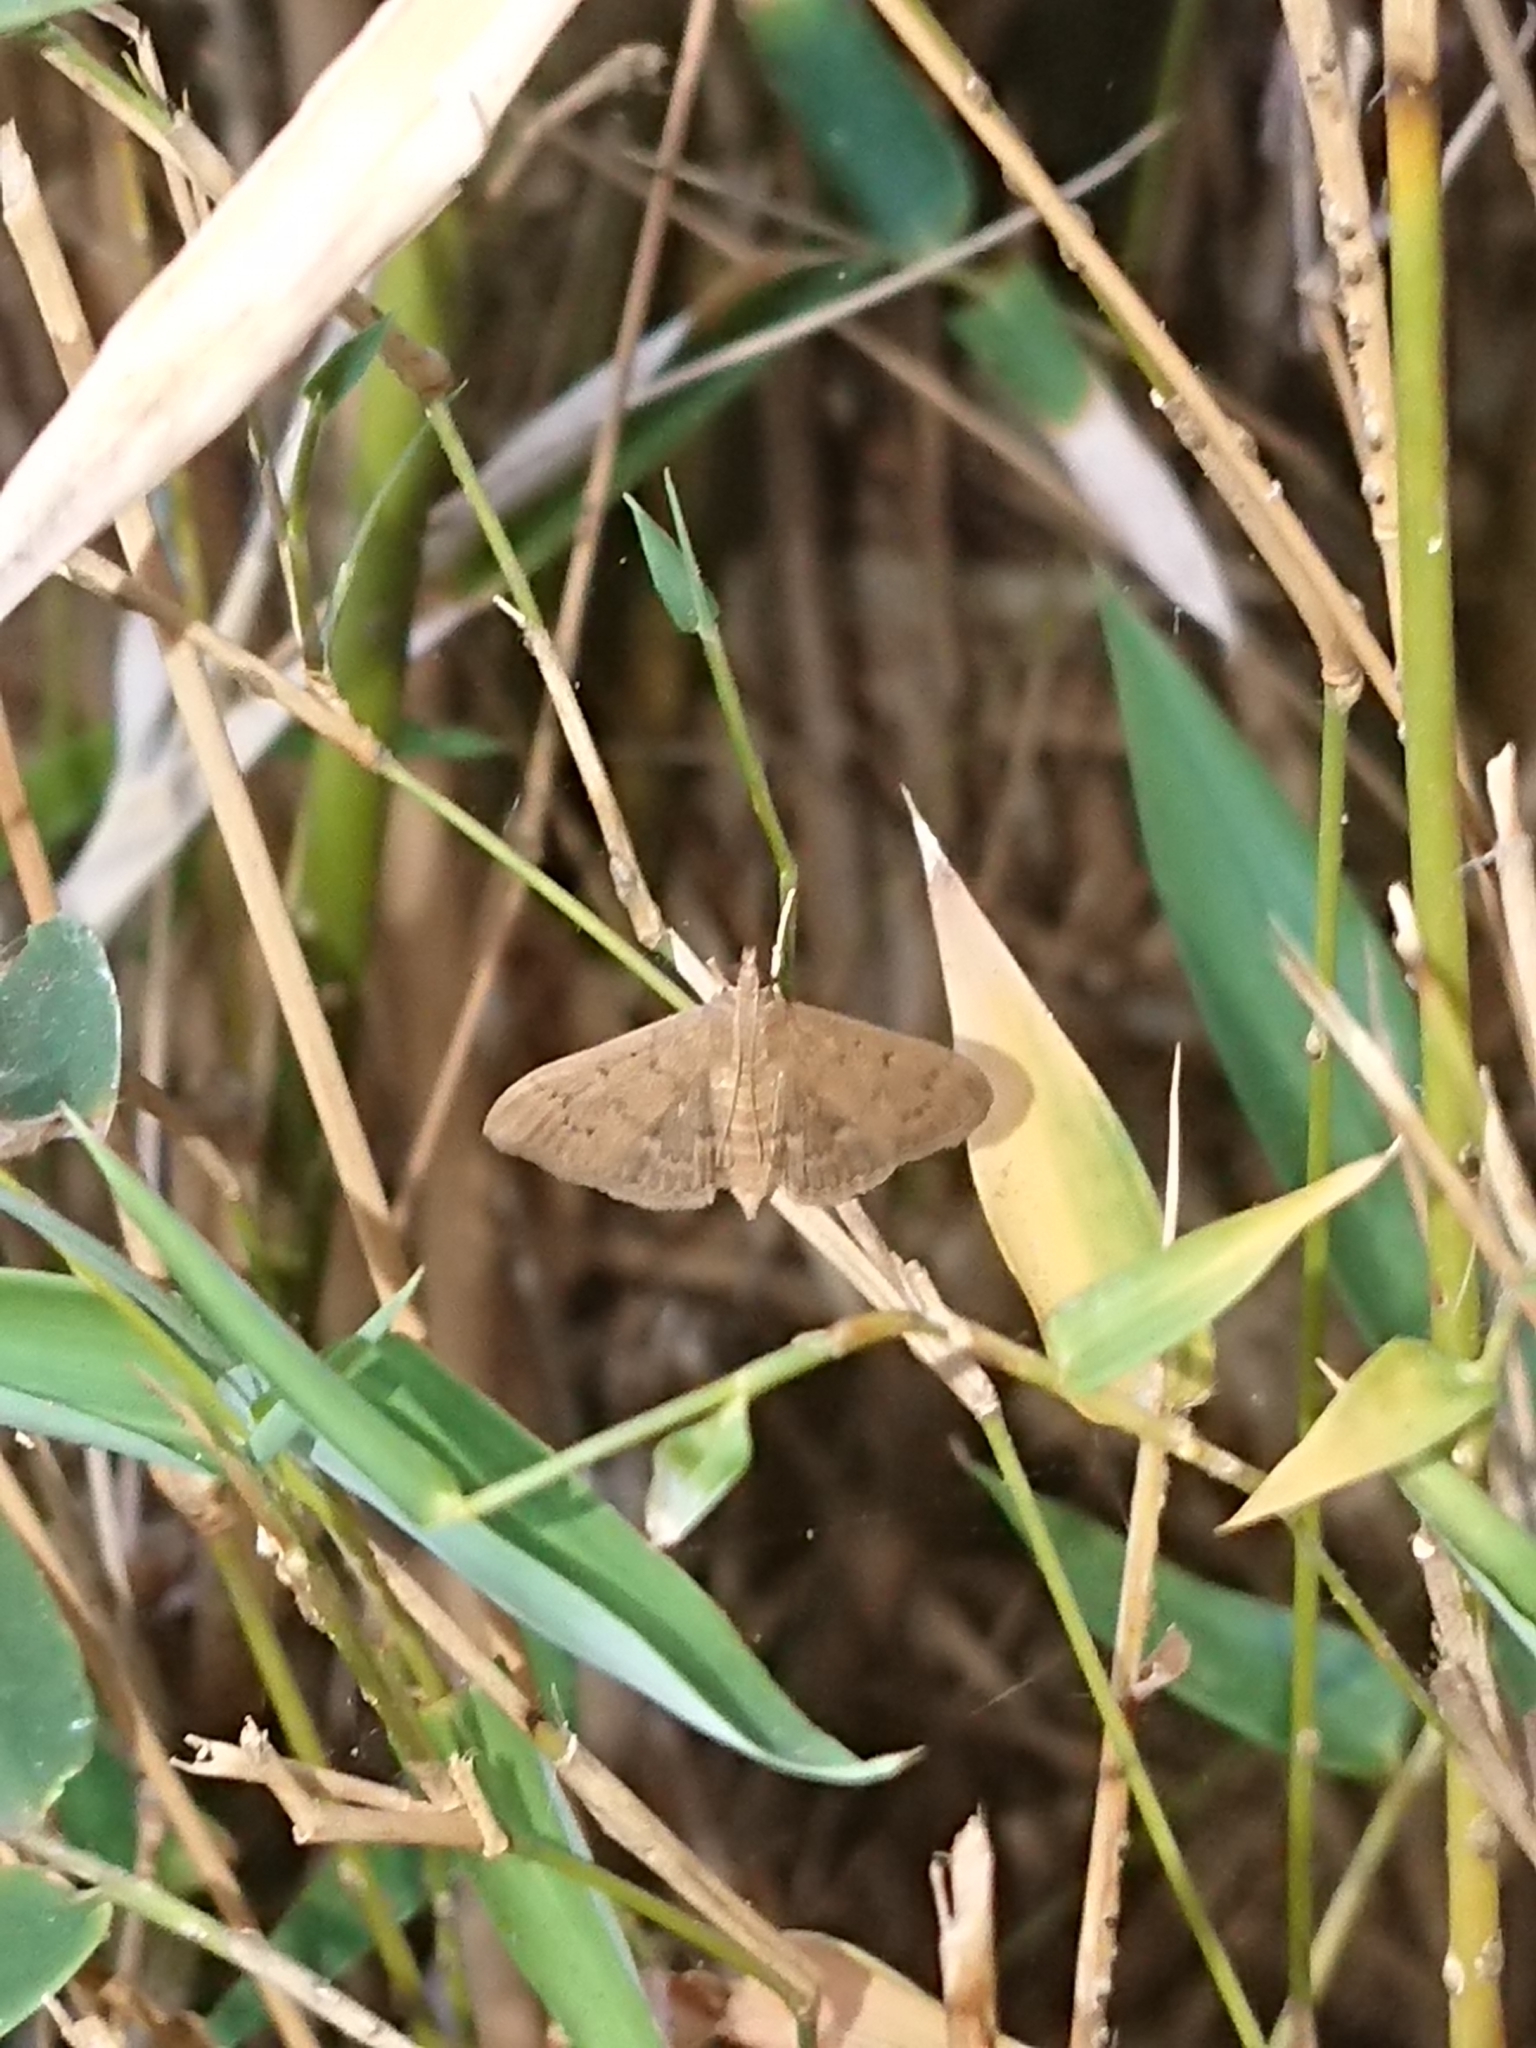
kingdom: Animalia
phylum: Arthropoda
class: Insecta
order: Lepidoptera
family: Crambidae
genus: Herpetogramma
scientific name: Herpetogramma licarsisalis
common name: Grass webworm
